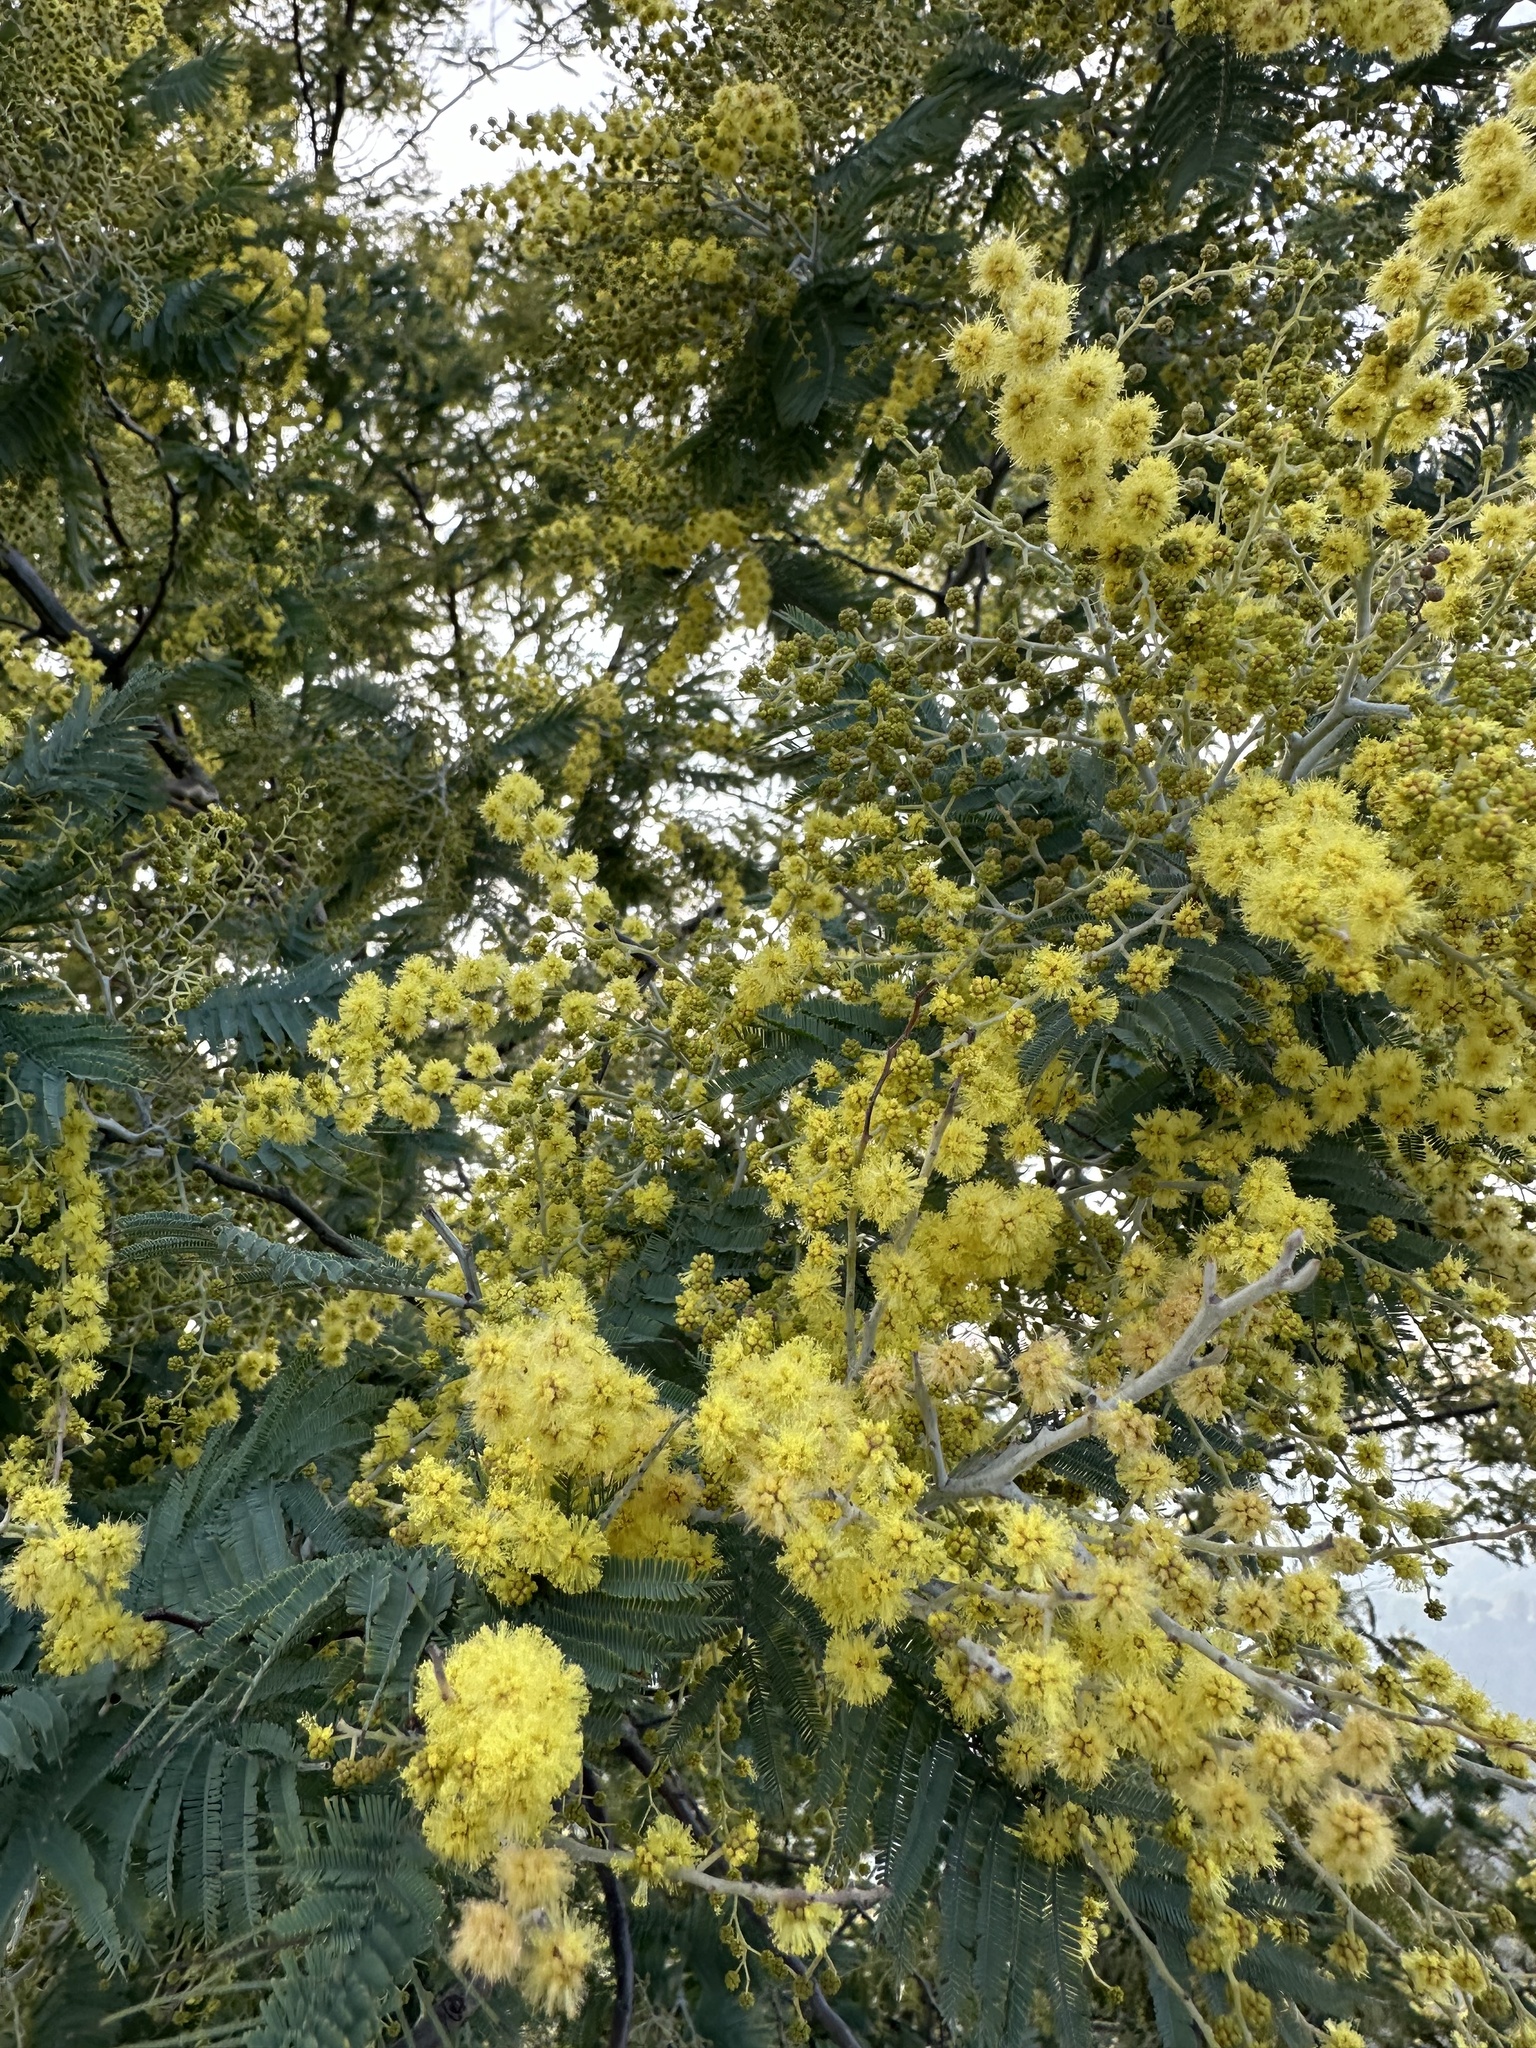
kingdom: Plantae
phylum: Tracheophyta
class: Magnoliopsida
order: Fabales
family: Fabaceae
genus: Acacia
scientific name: Acacia dealbata
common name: Silver wattle
